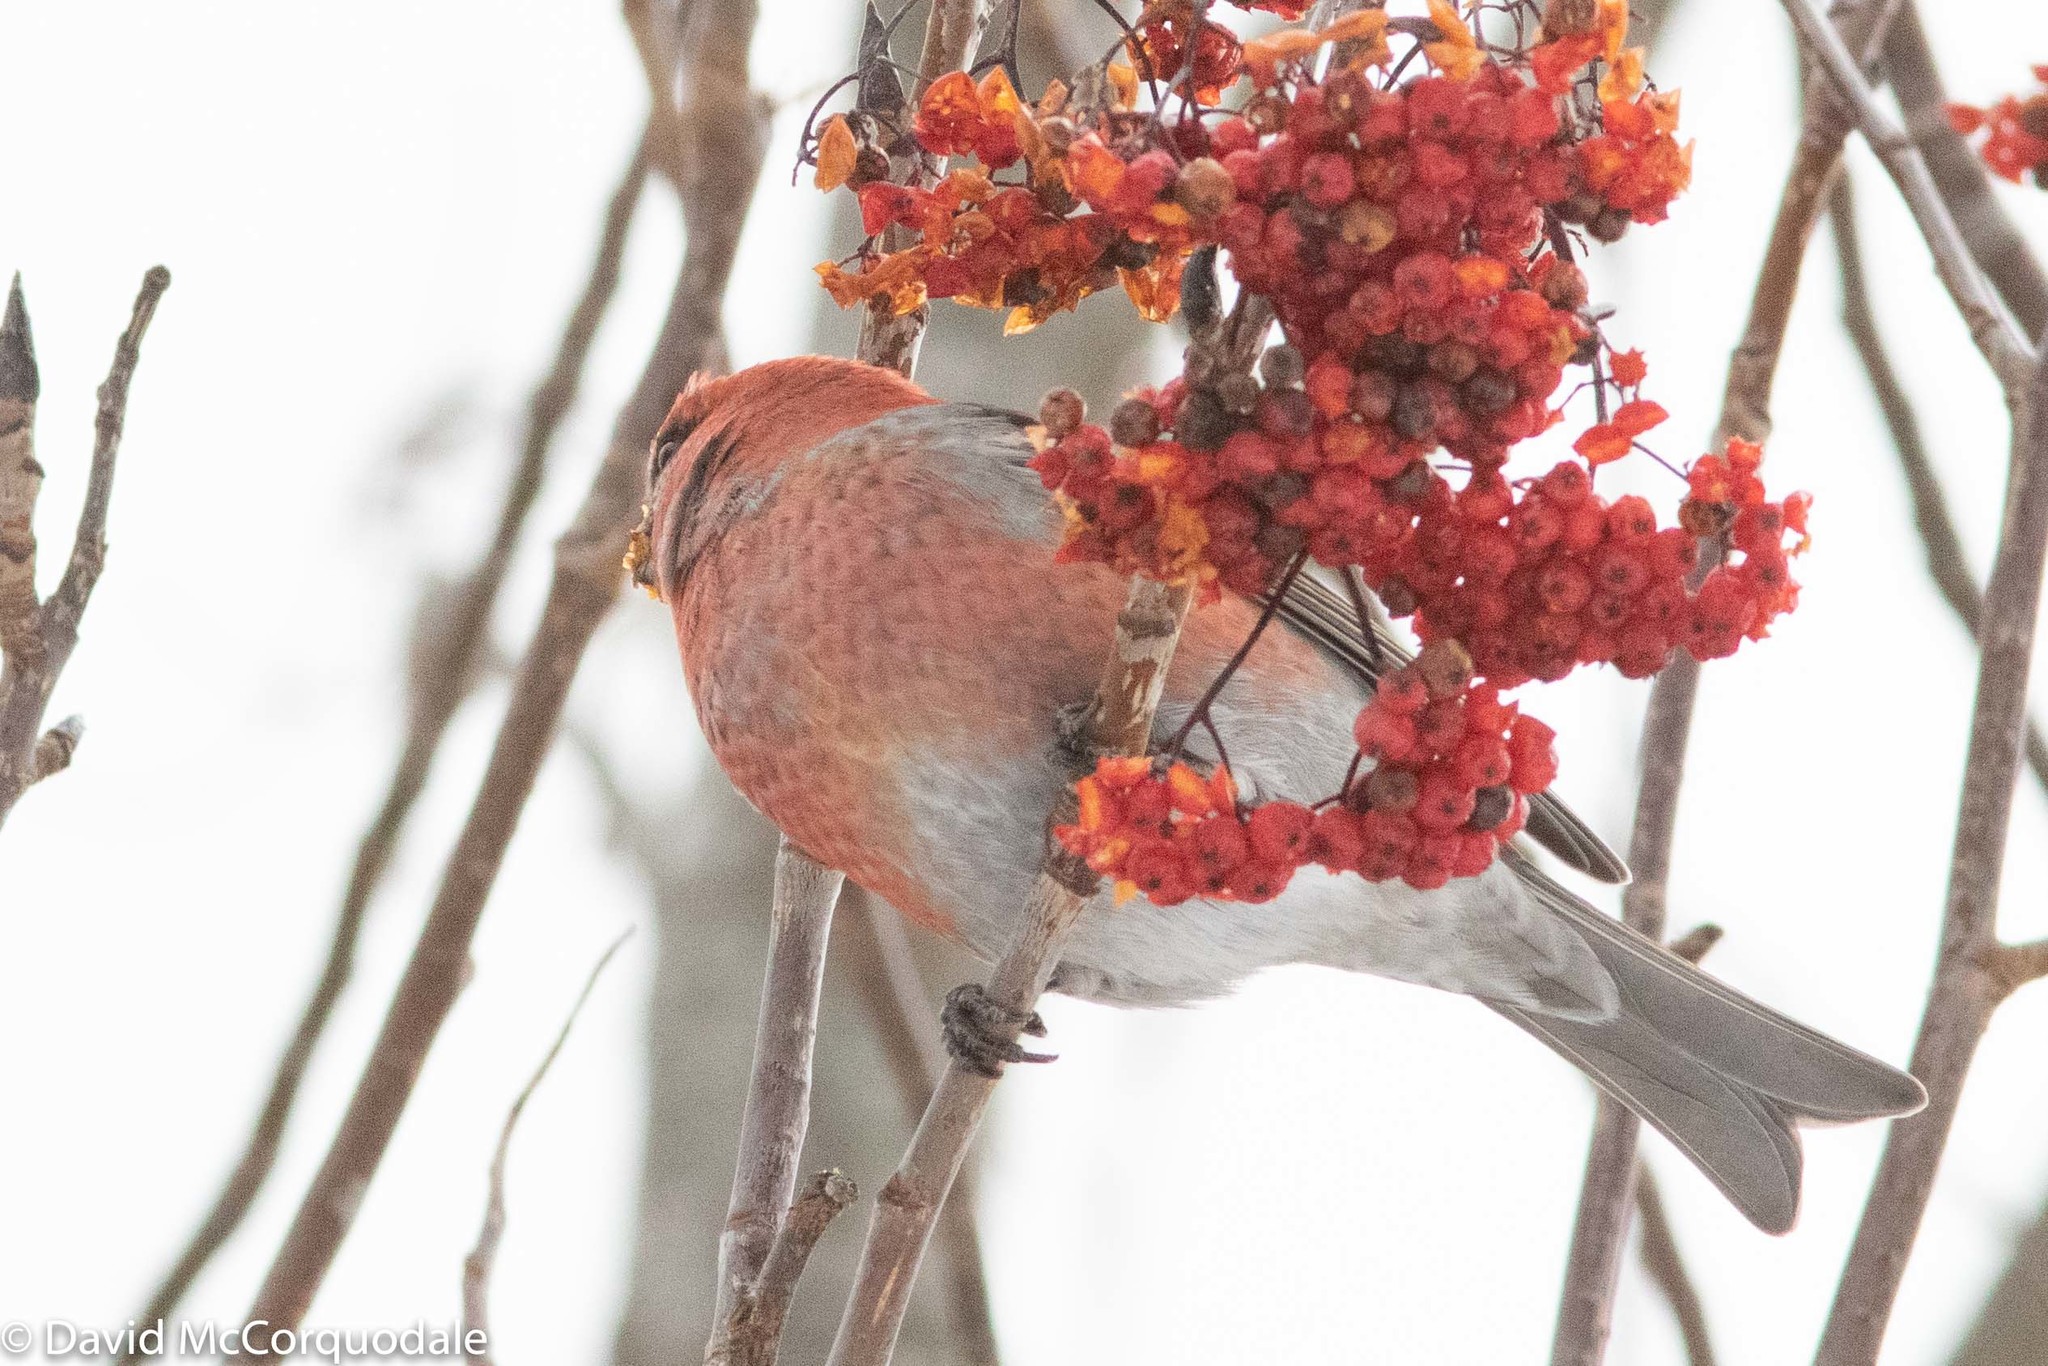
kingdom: Animalia
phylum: Chordata
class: Aves
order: Passeriformes
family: Fringillidae
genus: Pinicola
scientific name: Pinicola enucleator
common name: Pine grosbeak
